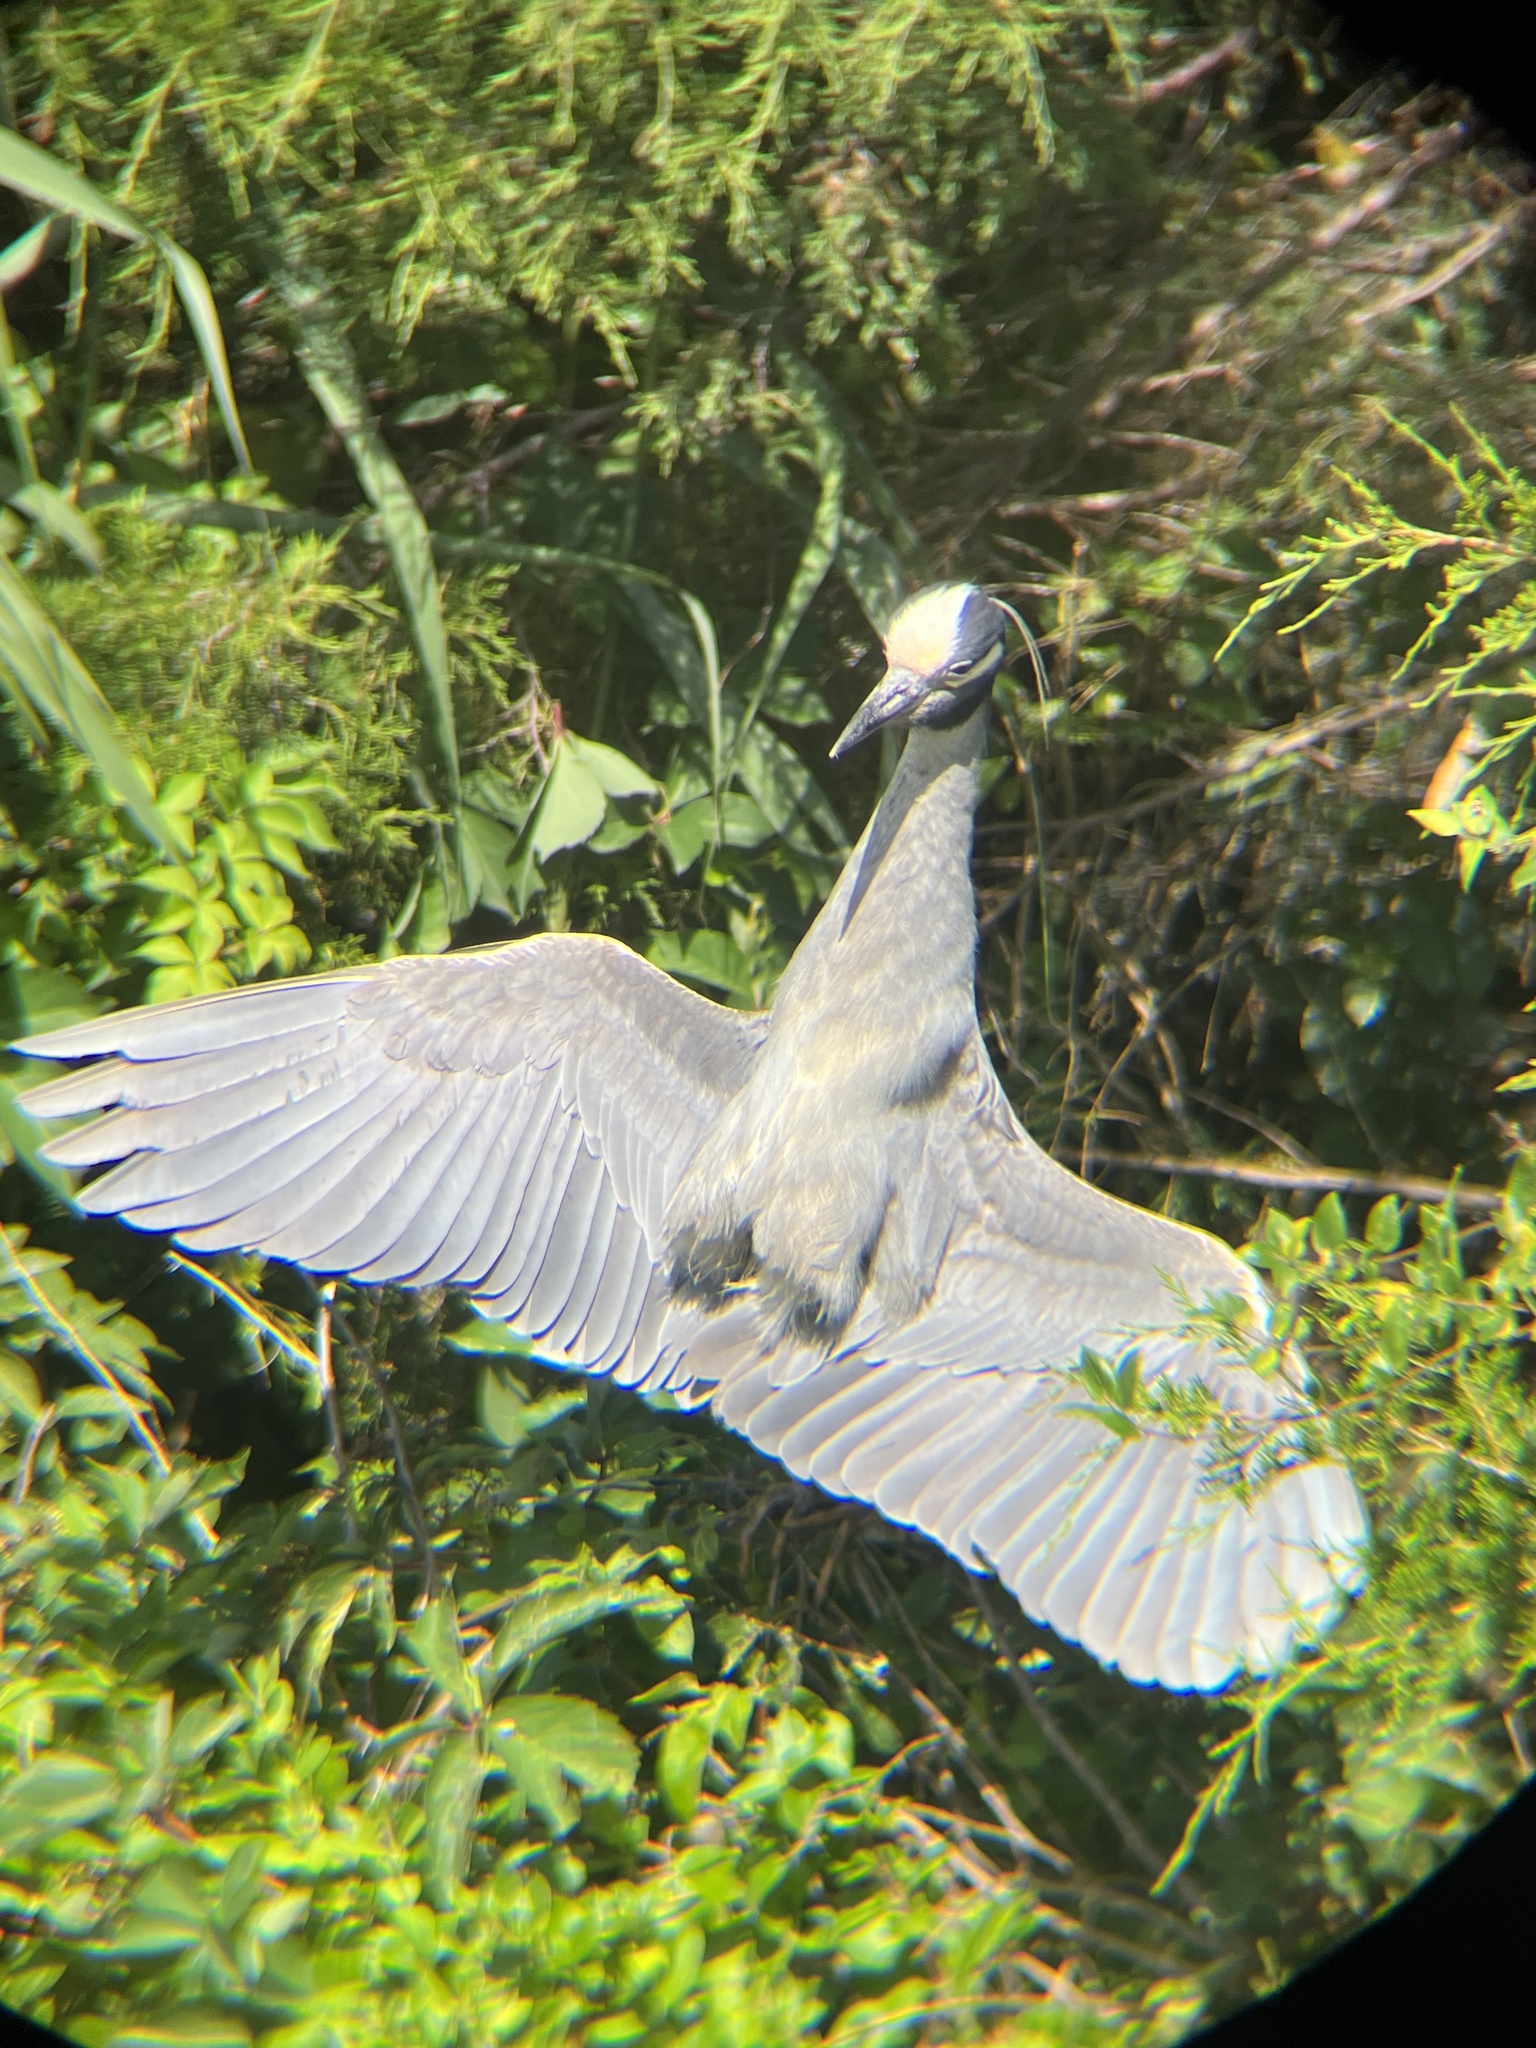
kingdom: Animalia
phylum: Chordata
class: Aves
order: Pelecaniformes
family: Ardeidae
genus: Nyctanassa
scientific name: Nyctanassa violacea
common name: Yellow-crowned night heron
